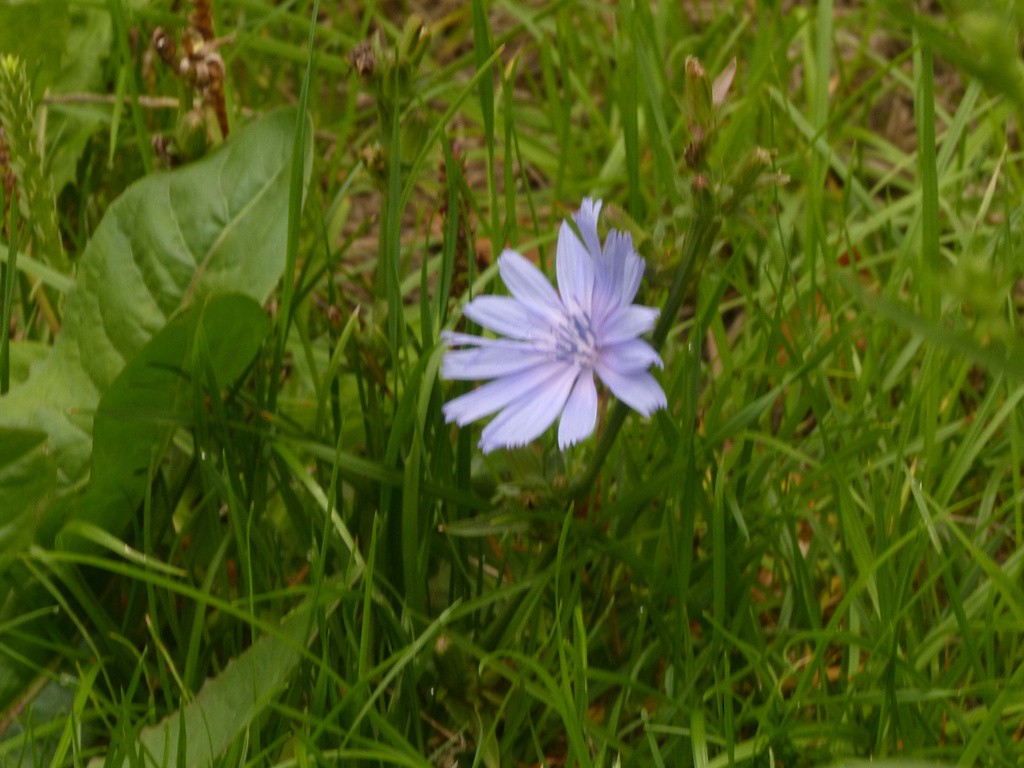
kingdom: Plantae
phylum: Tracheophyta
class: Magnoliopsida
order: Asterales
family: Asteraceae
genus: Cichorium
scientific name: Cichorium intybus
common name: Chicory
